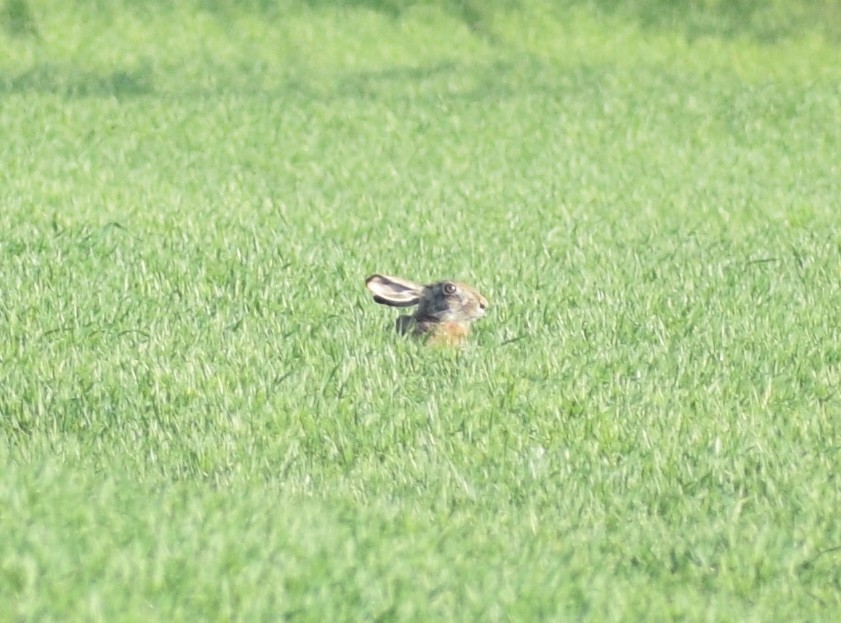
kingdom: Animalia
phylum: Chordata
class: Mammalia
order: Lagomorpha
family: Leporidae
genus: Lepus
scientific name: Lepus europaeus
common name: European hare
